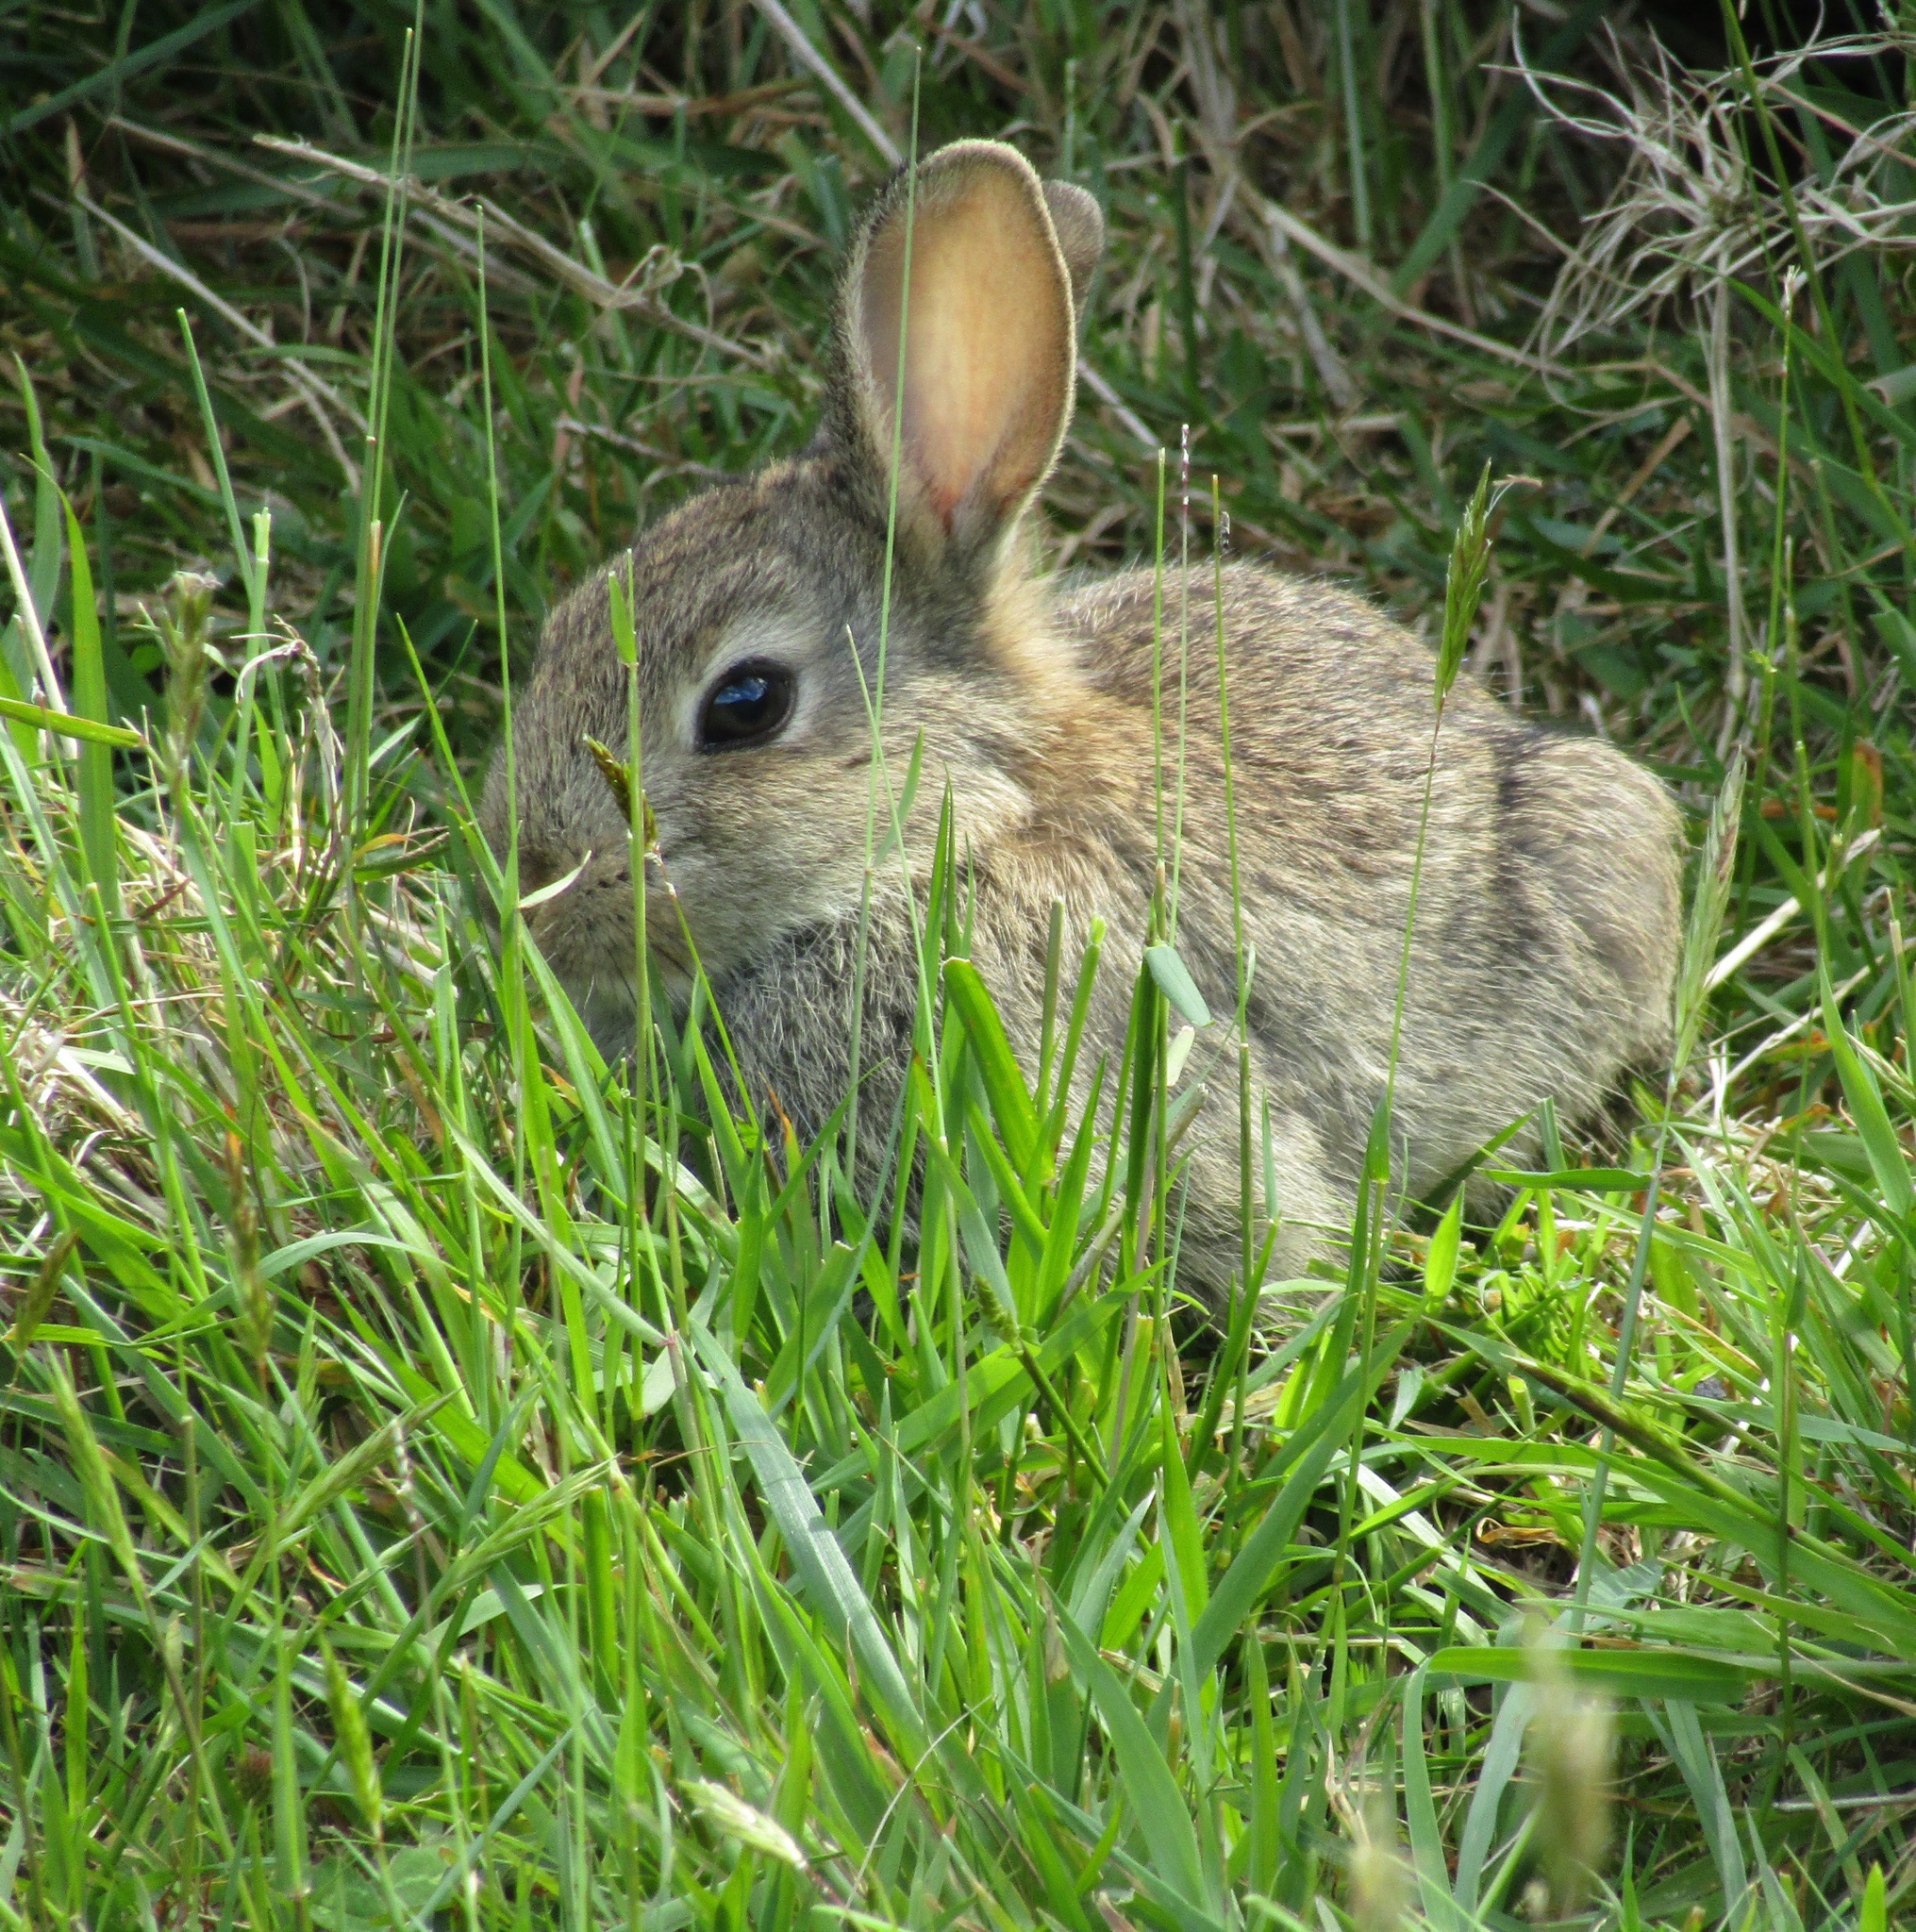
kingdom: Animalia
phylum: Chordata
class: Mammalia
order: Lagomorpha
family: Leporidae
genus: Oryctolagus
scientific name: Oryctolagus cuniculus
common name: European rabbit
